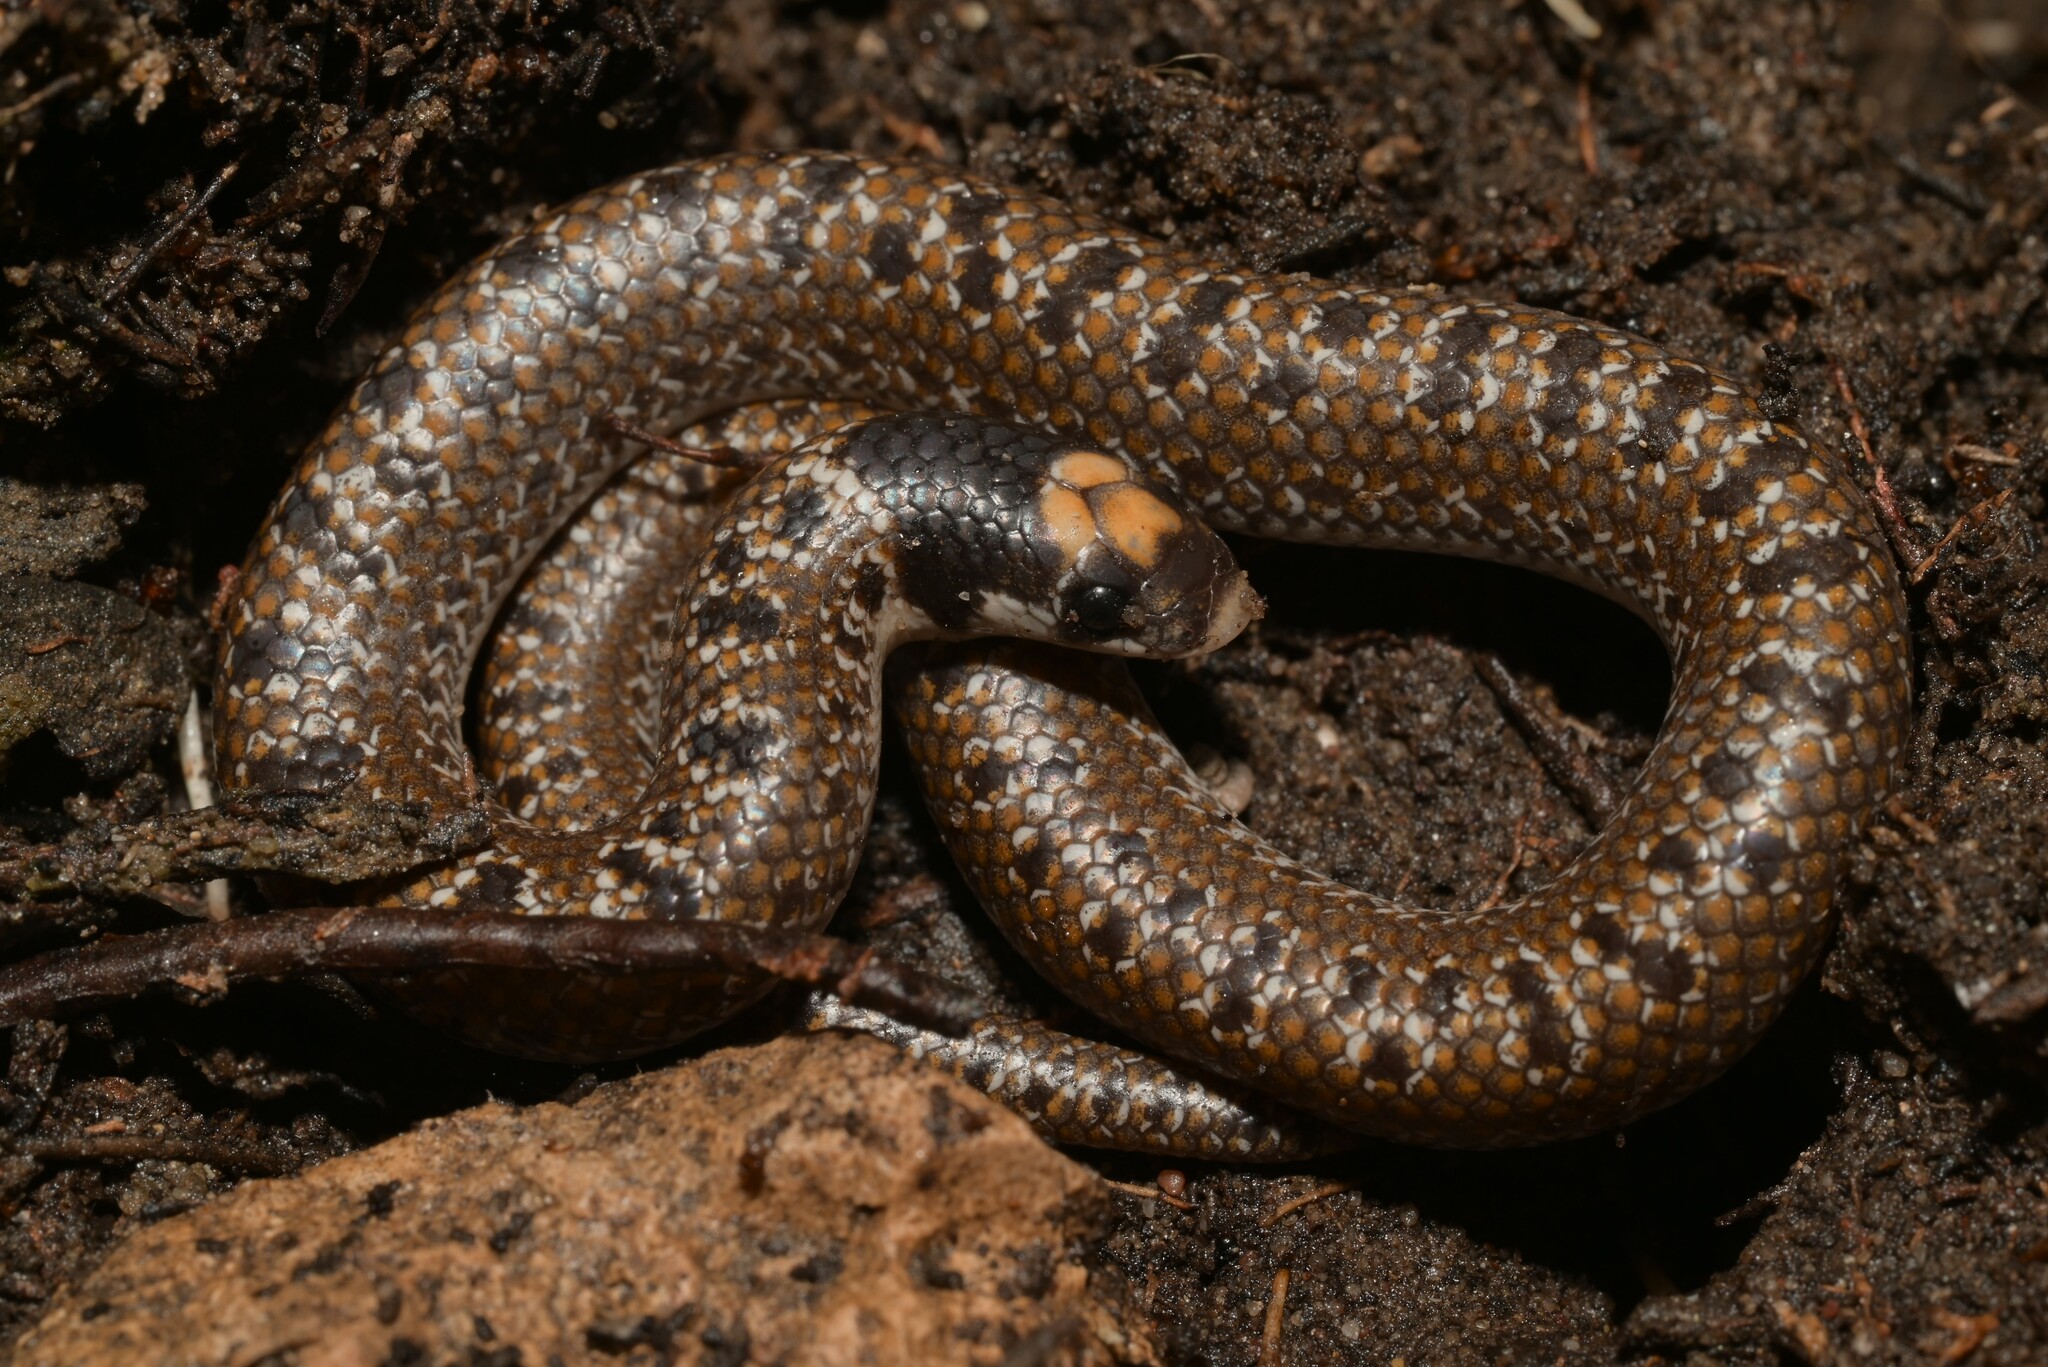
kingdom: Animalia
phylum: Chordata
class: Squamata
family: Prosymnidae
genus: Prosymna
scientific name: Prosymna sundevalli
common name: Sundevall's shovel-snout
